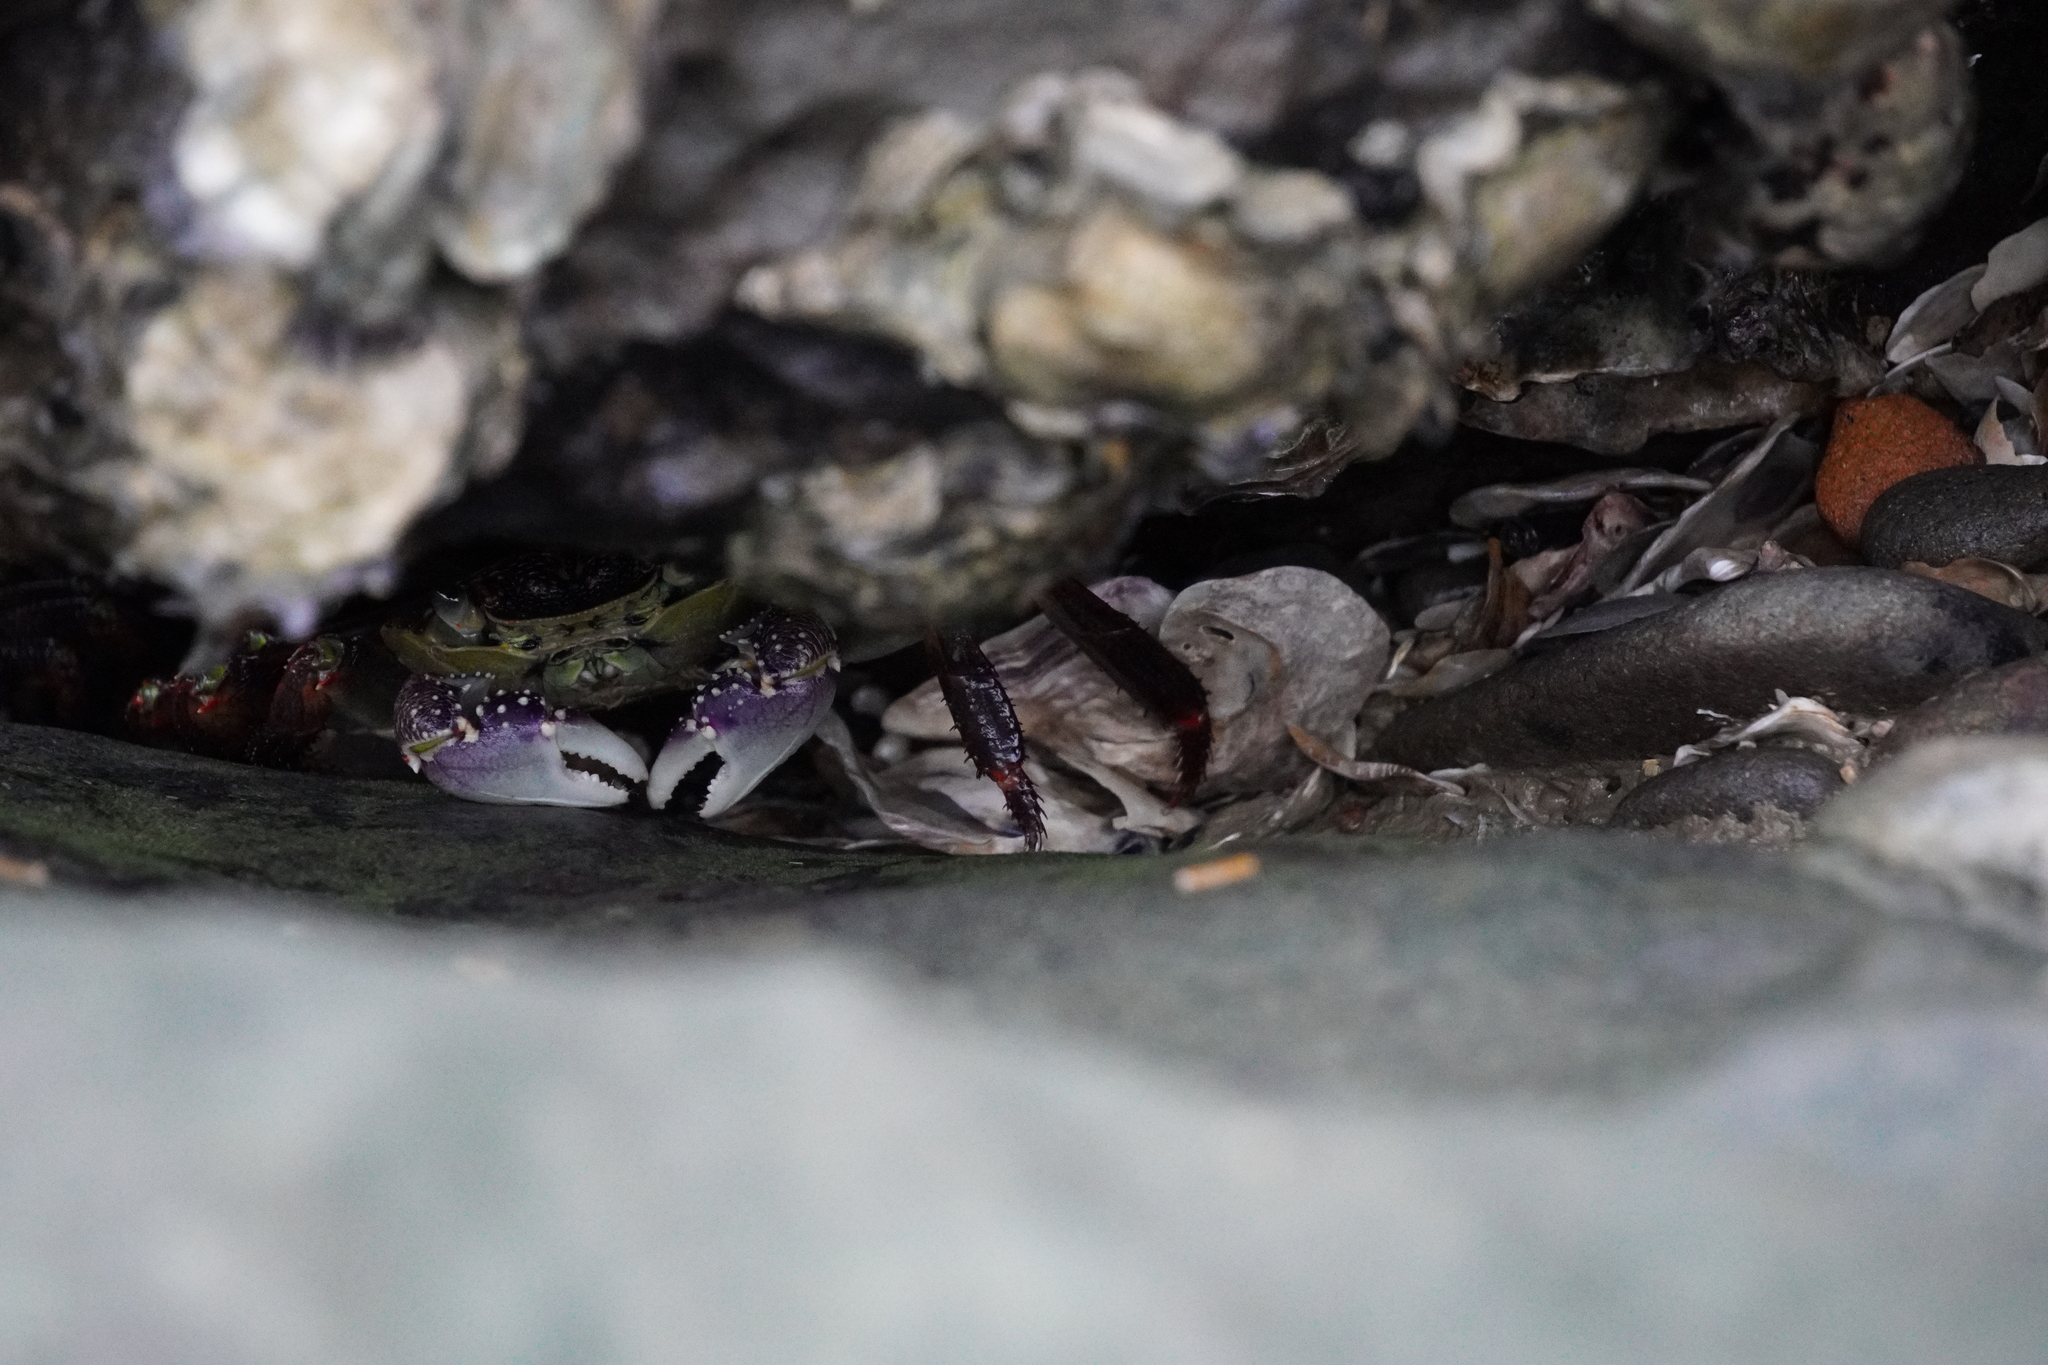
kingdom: Animalia
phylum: Arthropoda
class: Malacostraca
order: Decapoda
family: Grapsidae
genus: Leptograpsus
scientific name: Leptograpsus variegatus
